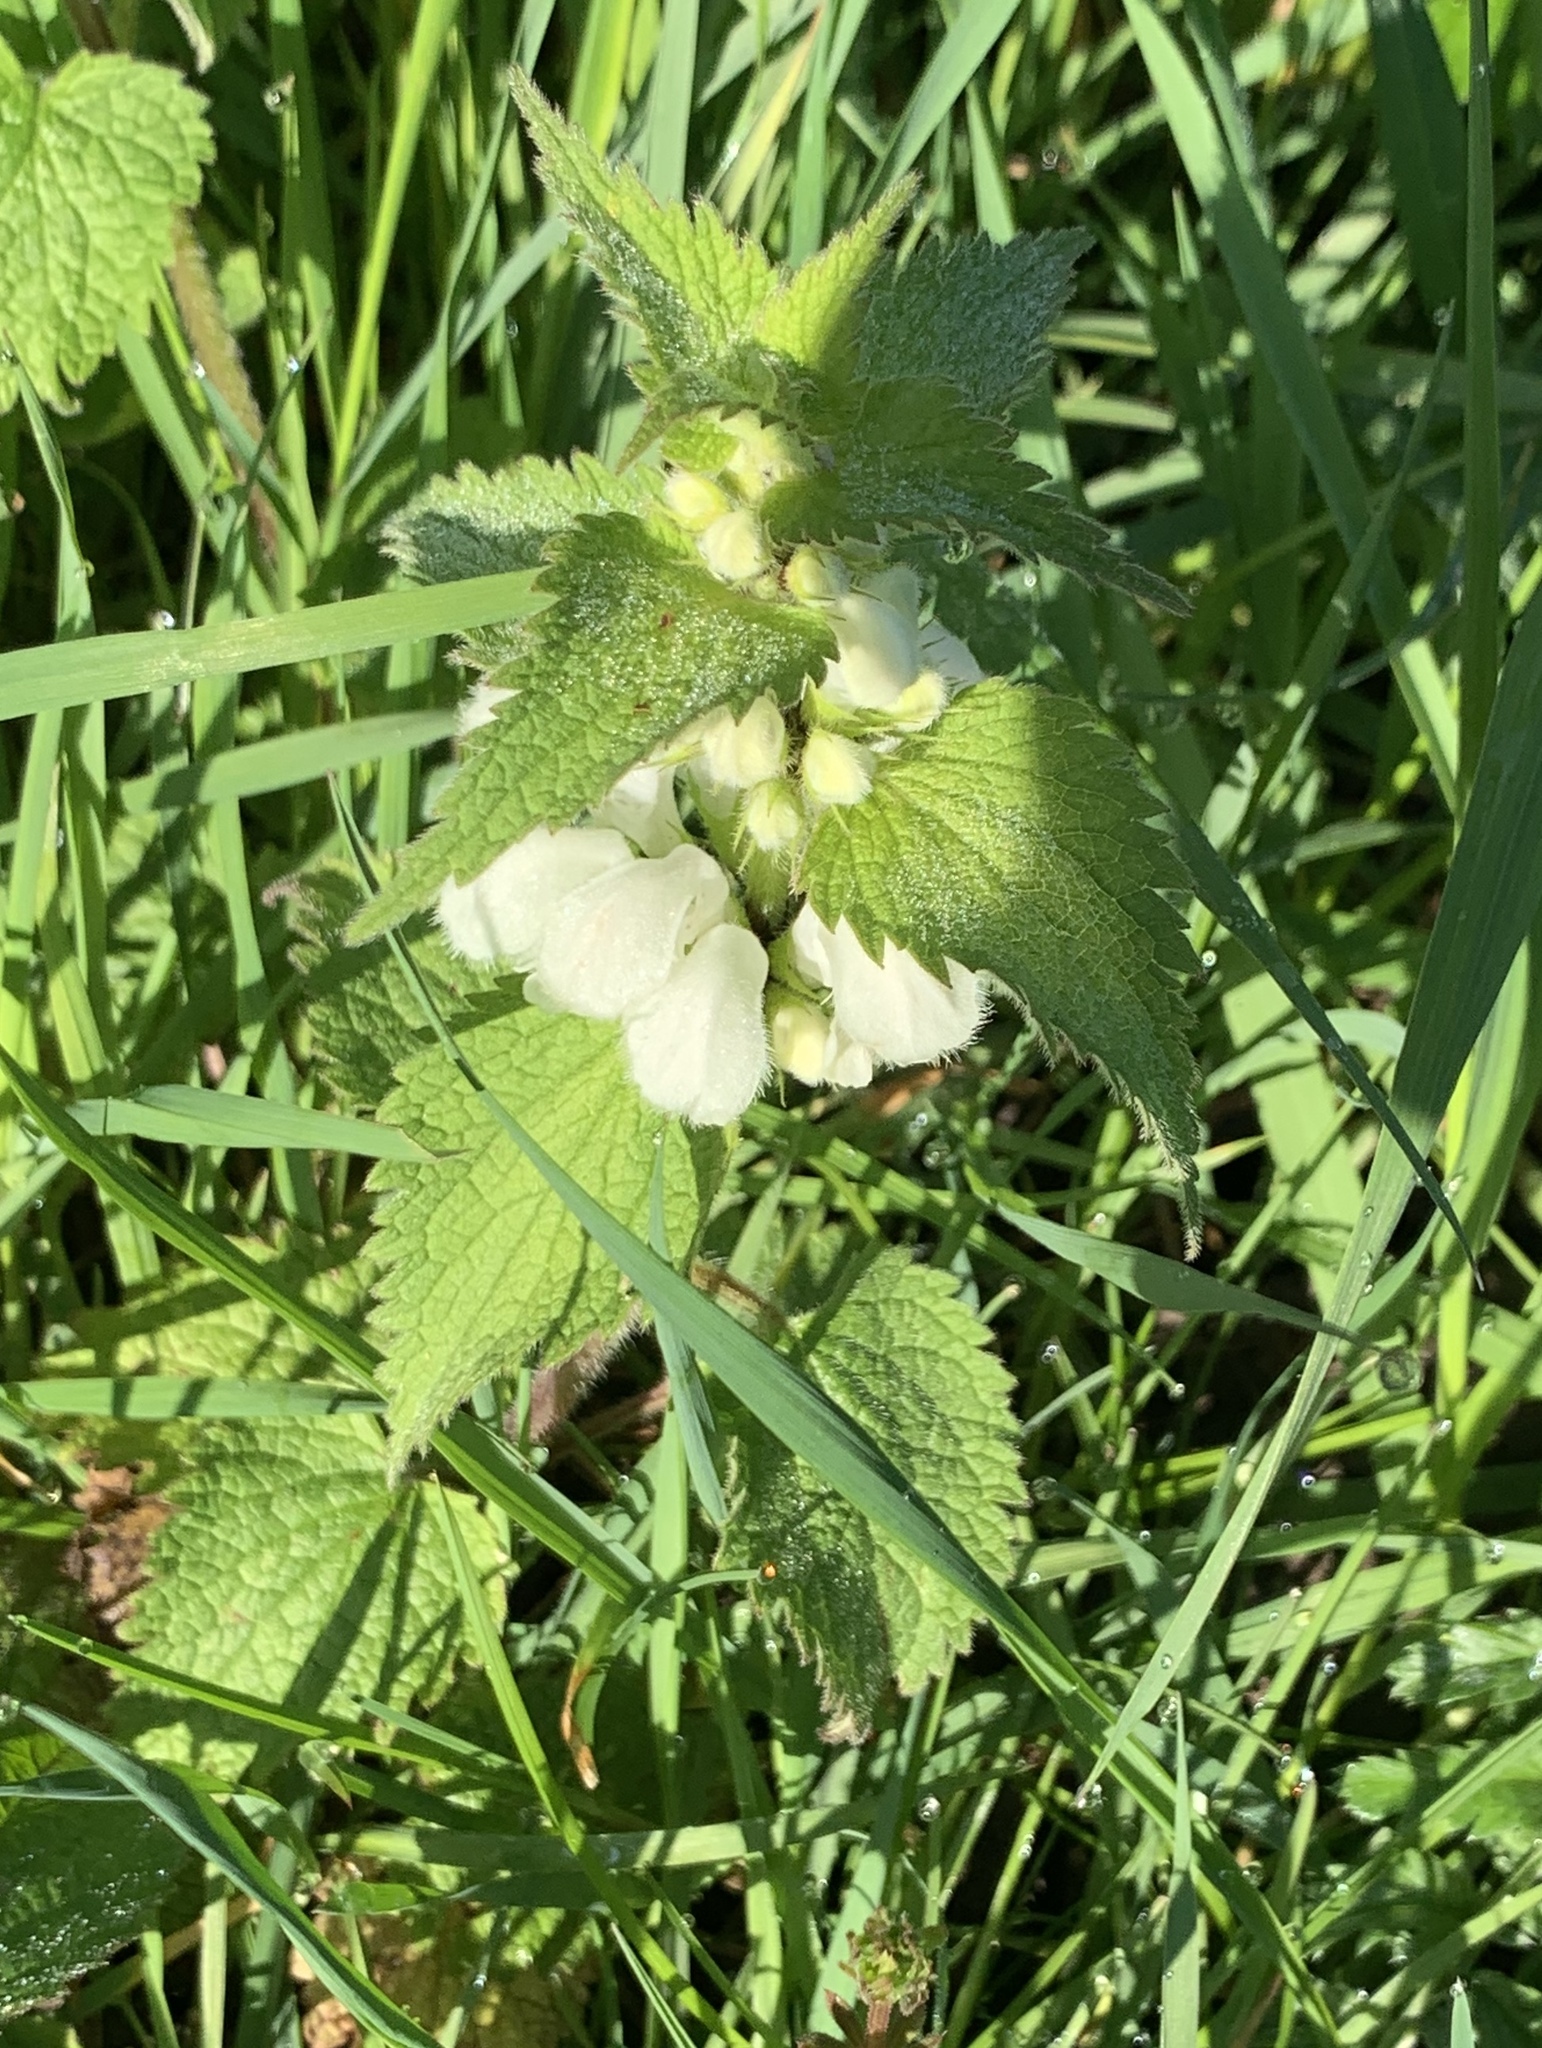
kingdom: Plantae
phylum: Tracheophyta
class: Magnoliopsida
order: Lamiales
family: Lamiaceae
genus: Lamium
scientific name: Lamium album
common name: White dead-nettle
